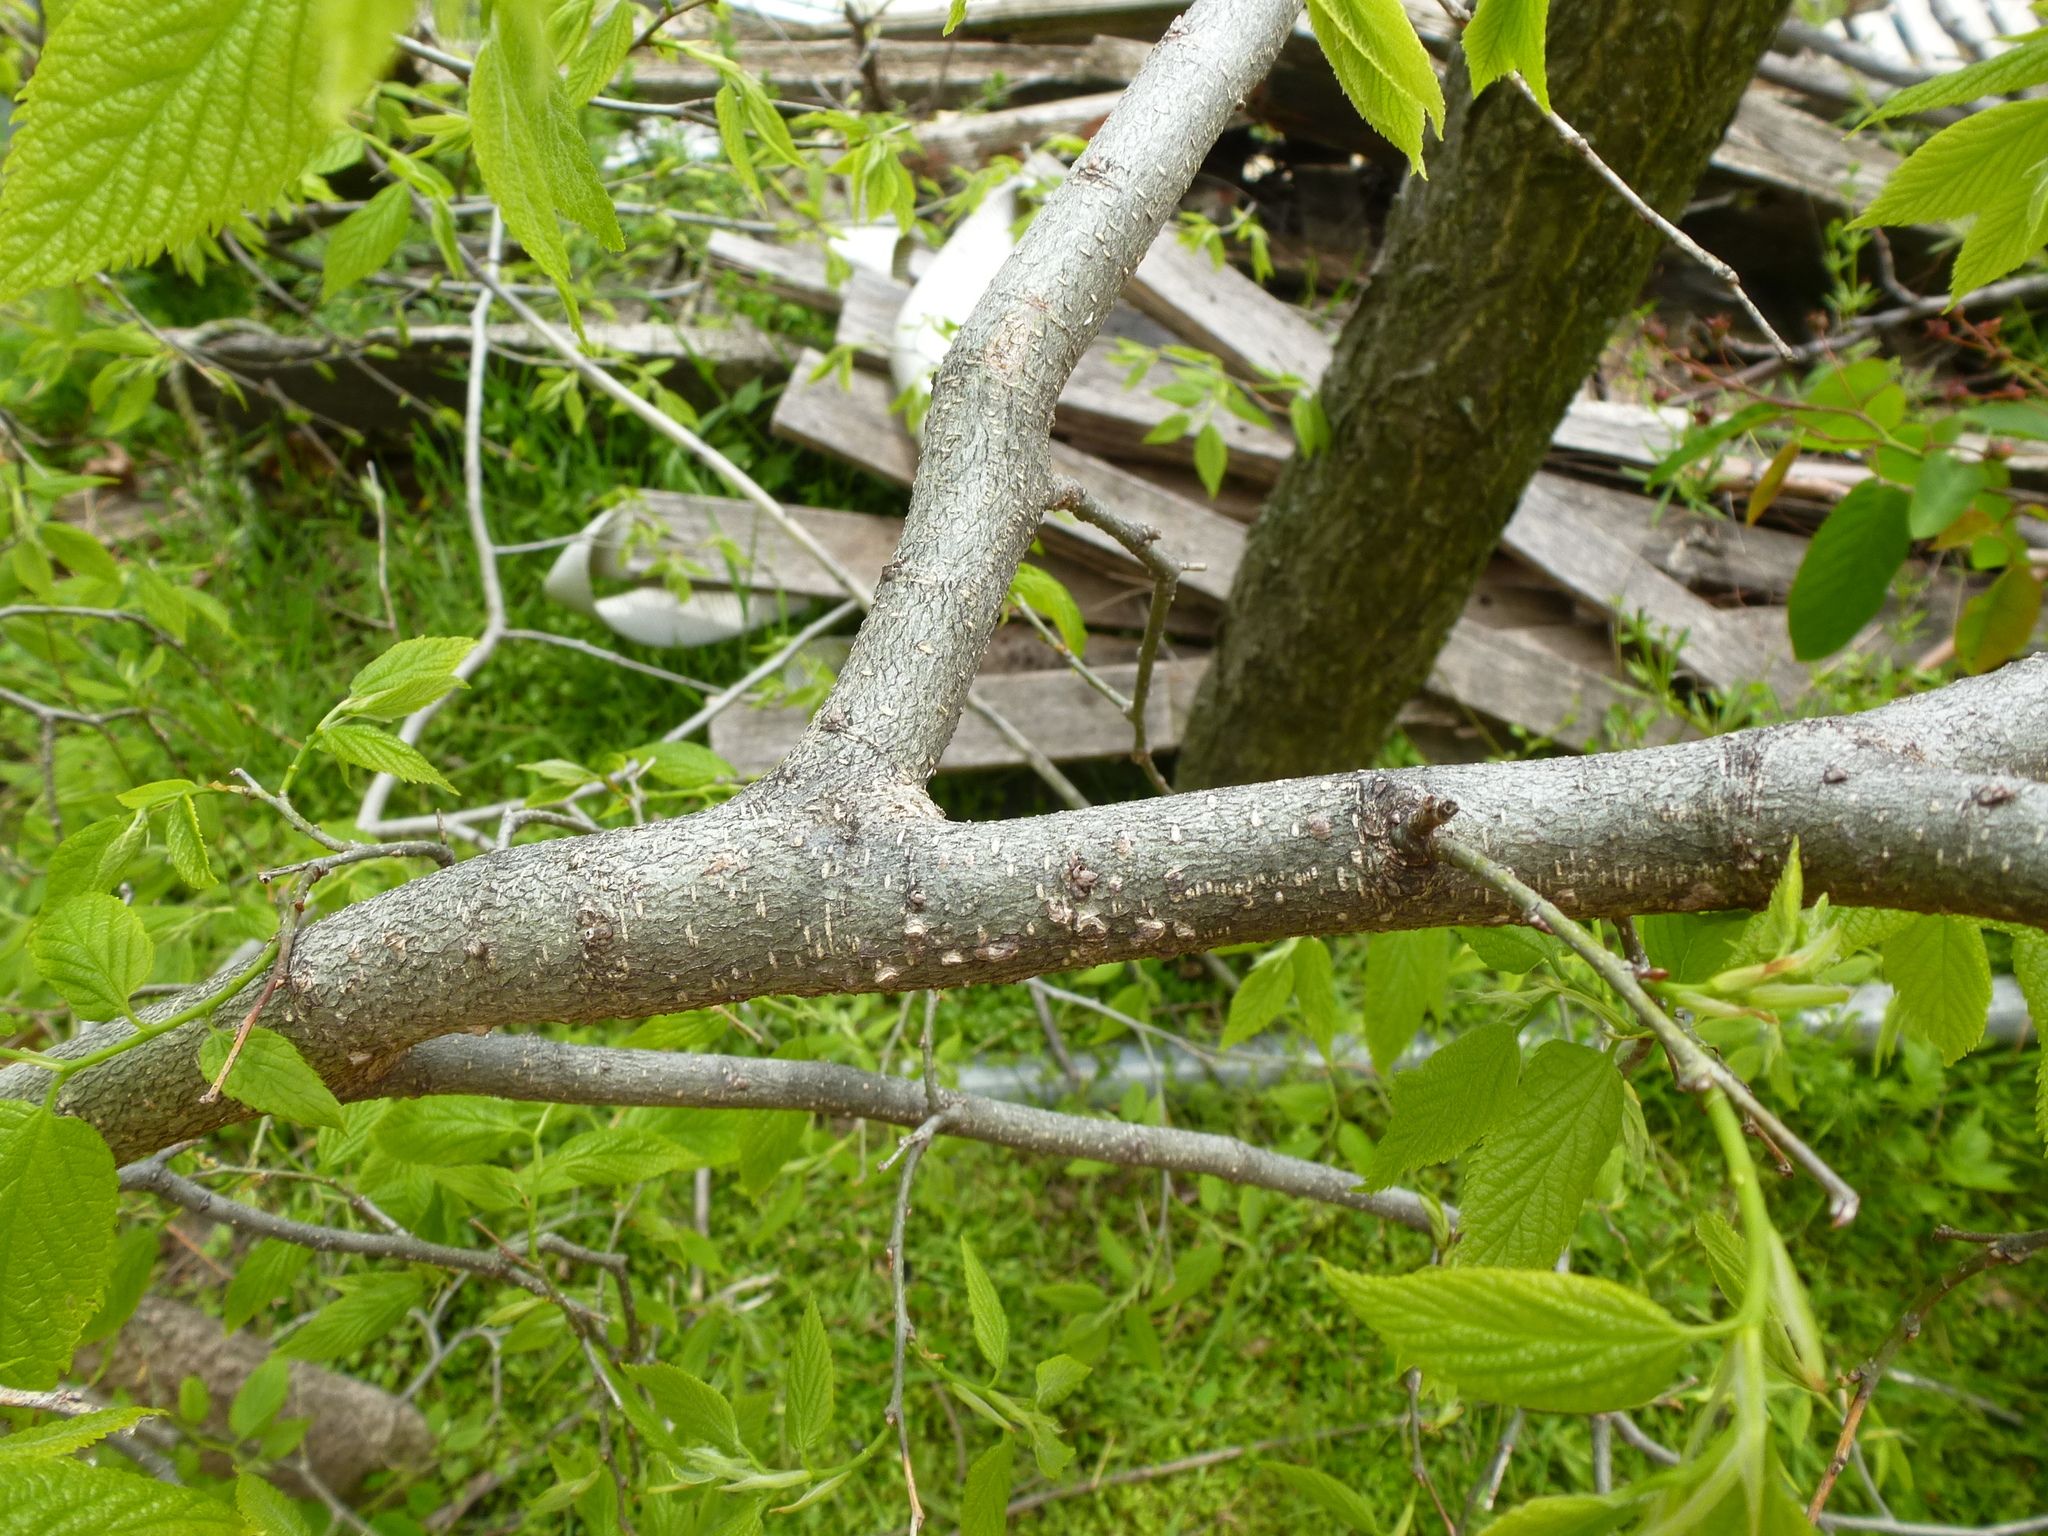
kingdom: Plantae
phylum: Tracheophyta
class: Magnoliopsida
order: Rosales
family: Cannabaceae
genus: Celtis
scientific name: Celtis occidentalis
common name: Common hackberry
